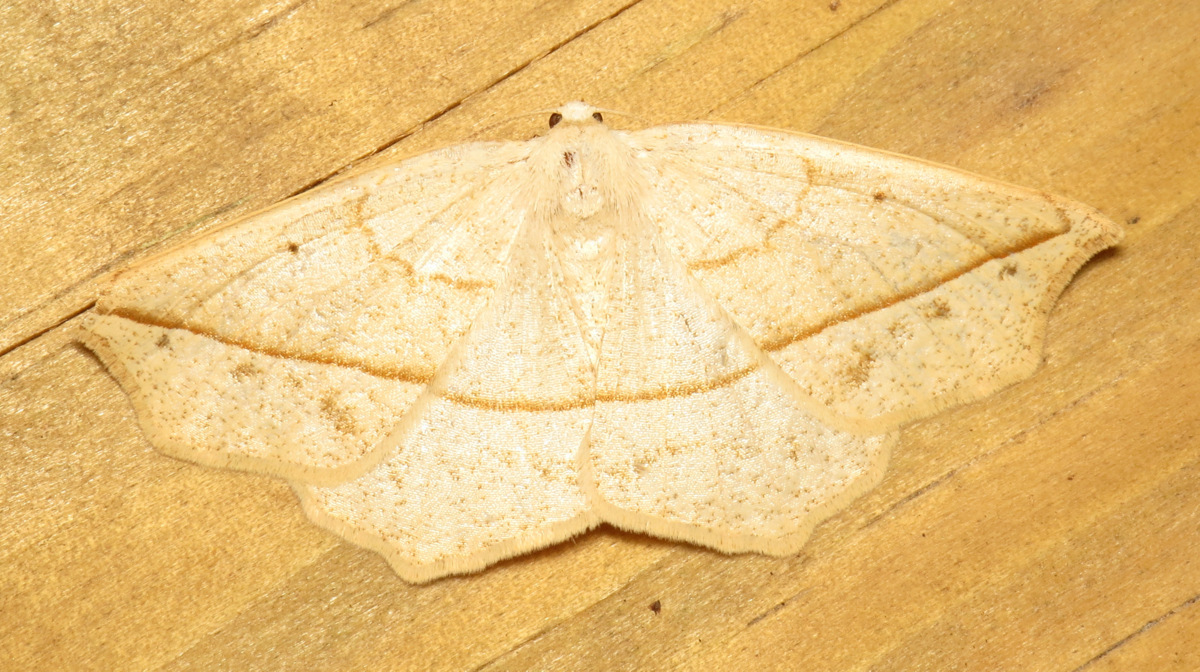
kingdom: Animalia
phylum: Arthropoda
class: Insecta
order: Lepidoptera
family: Geometridae
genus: Eusarca
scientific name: Eusarca confusaria
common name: Confused eusarca
